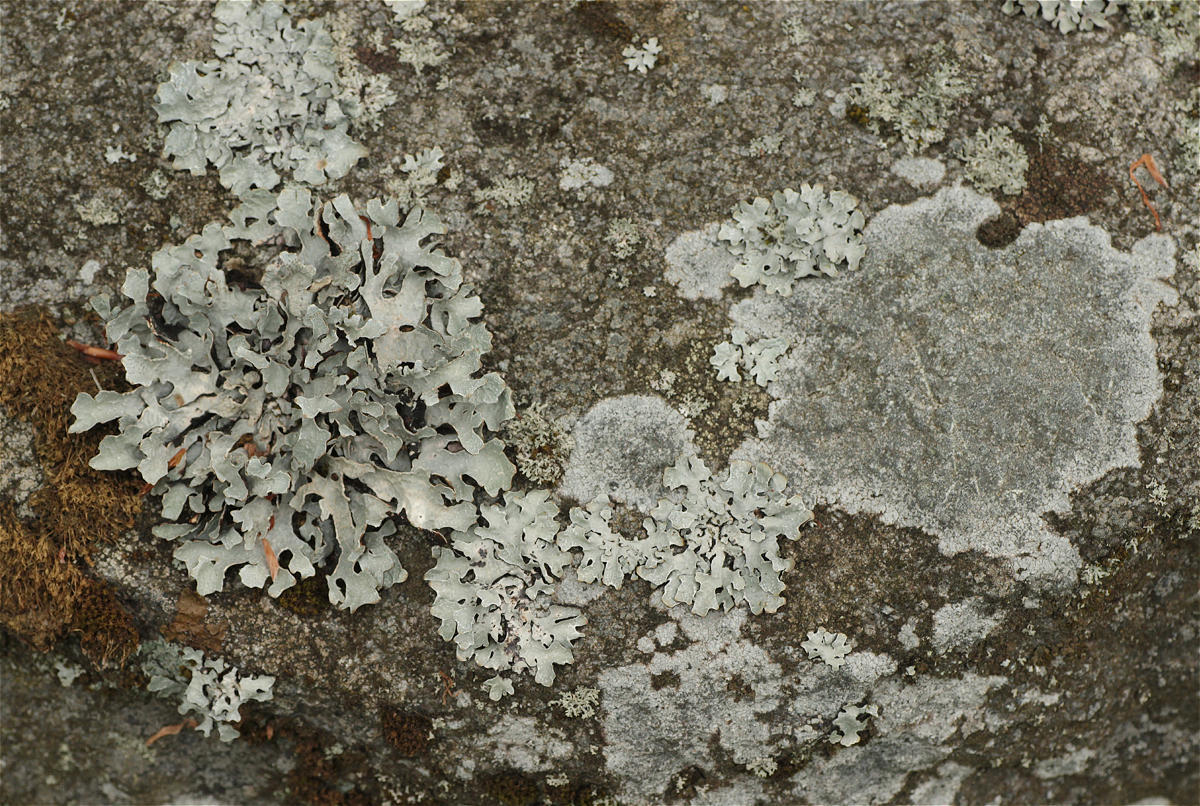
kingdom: Fungi
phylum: Ascomycota
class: Lecanoromycetes
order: Lecanorales
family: Parmeliaceae
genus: Parmelia
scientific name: Parmelia sulcata
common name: Netted shield lichen
